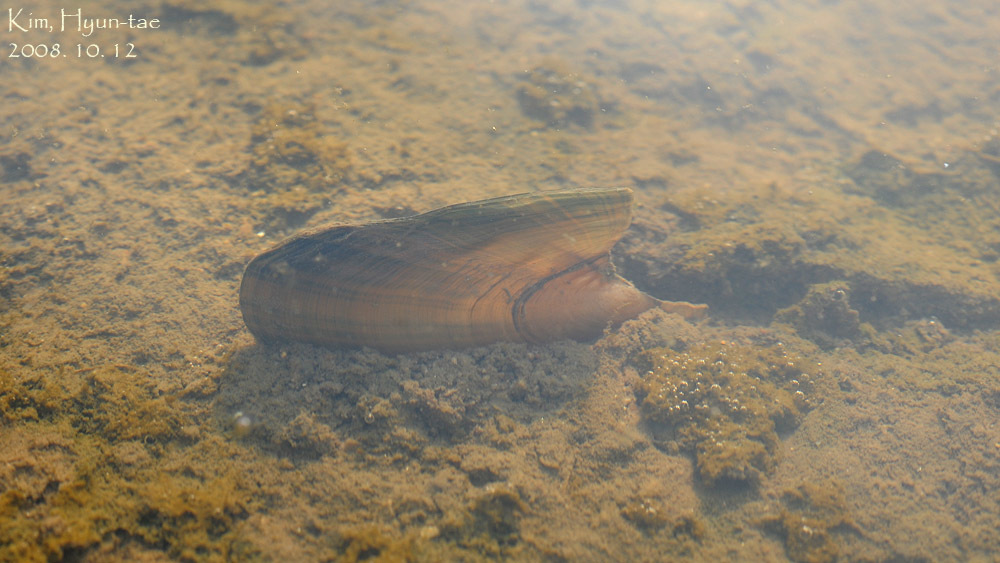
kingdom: Animalia
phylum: Mollusca
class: Bivalvia
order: Unionida
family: Unionidae
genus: Cristaria
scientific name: Cristaria plicata
